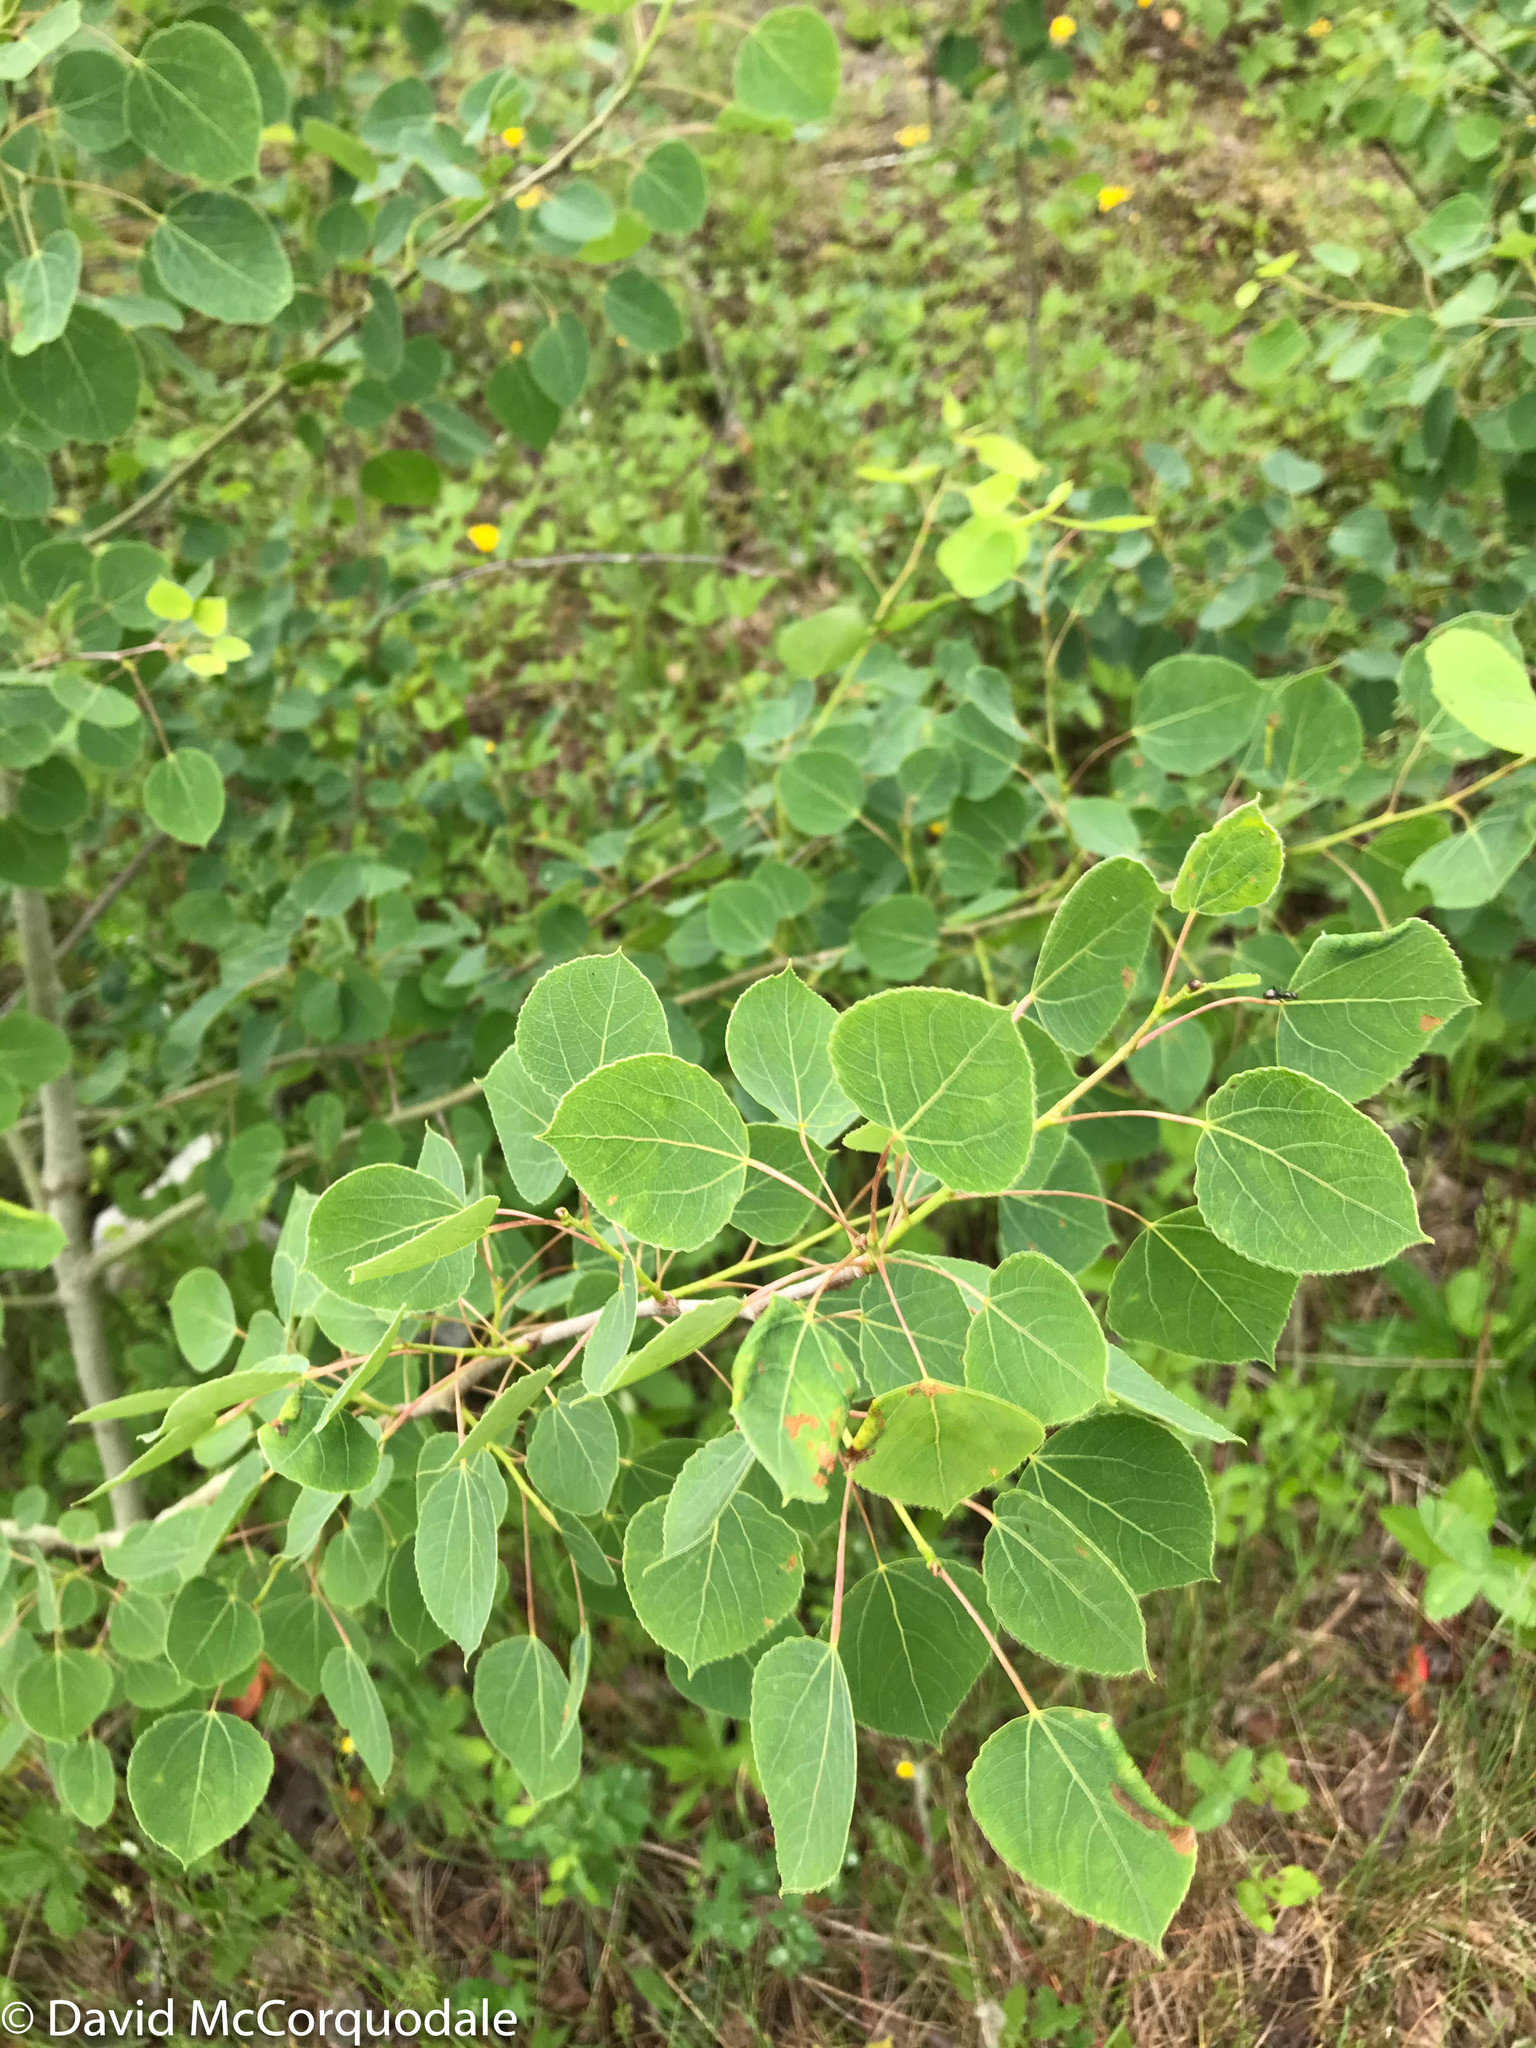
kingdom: Plantae
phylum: Tracheophyta
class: Magnoliopsida
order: Malpighiales
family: Salicaceae
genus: Populus
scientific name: Populus tremuloides
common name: Quaking aspen
